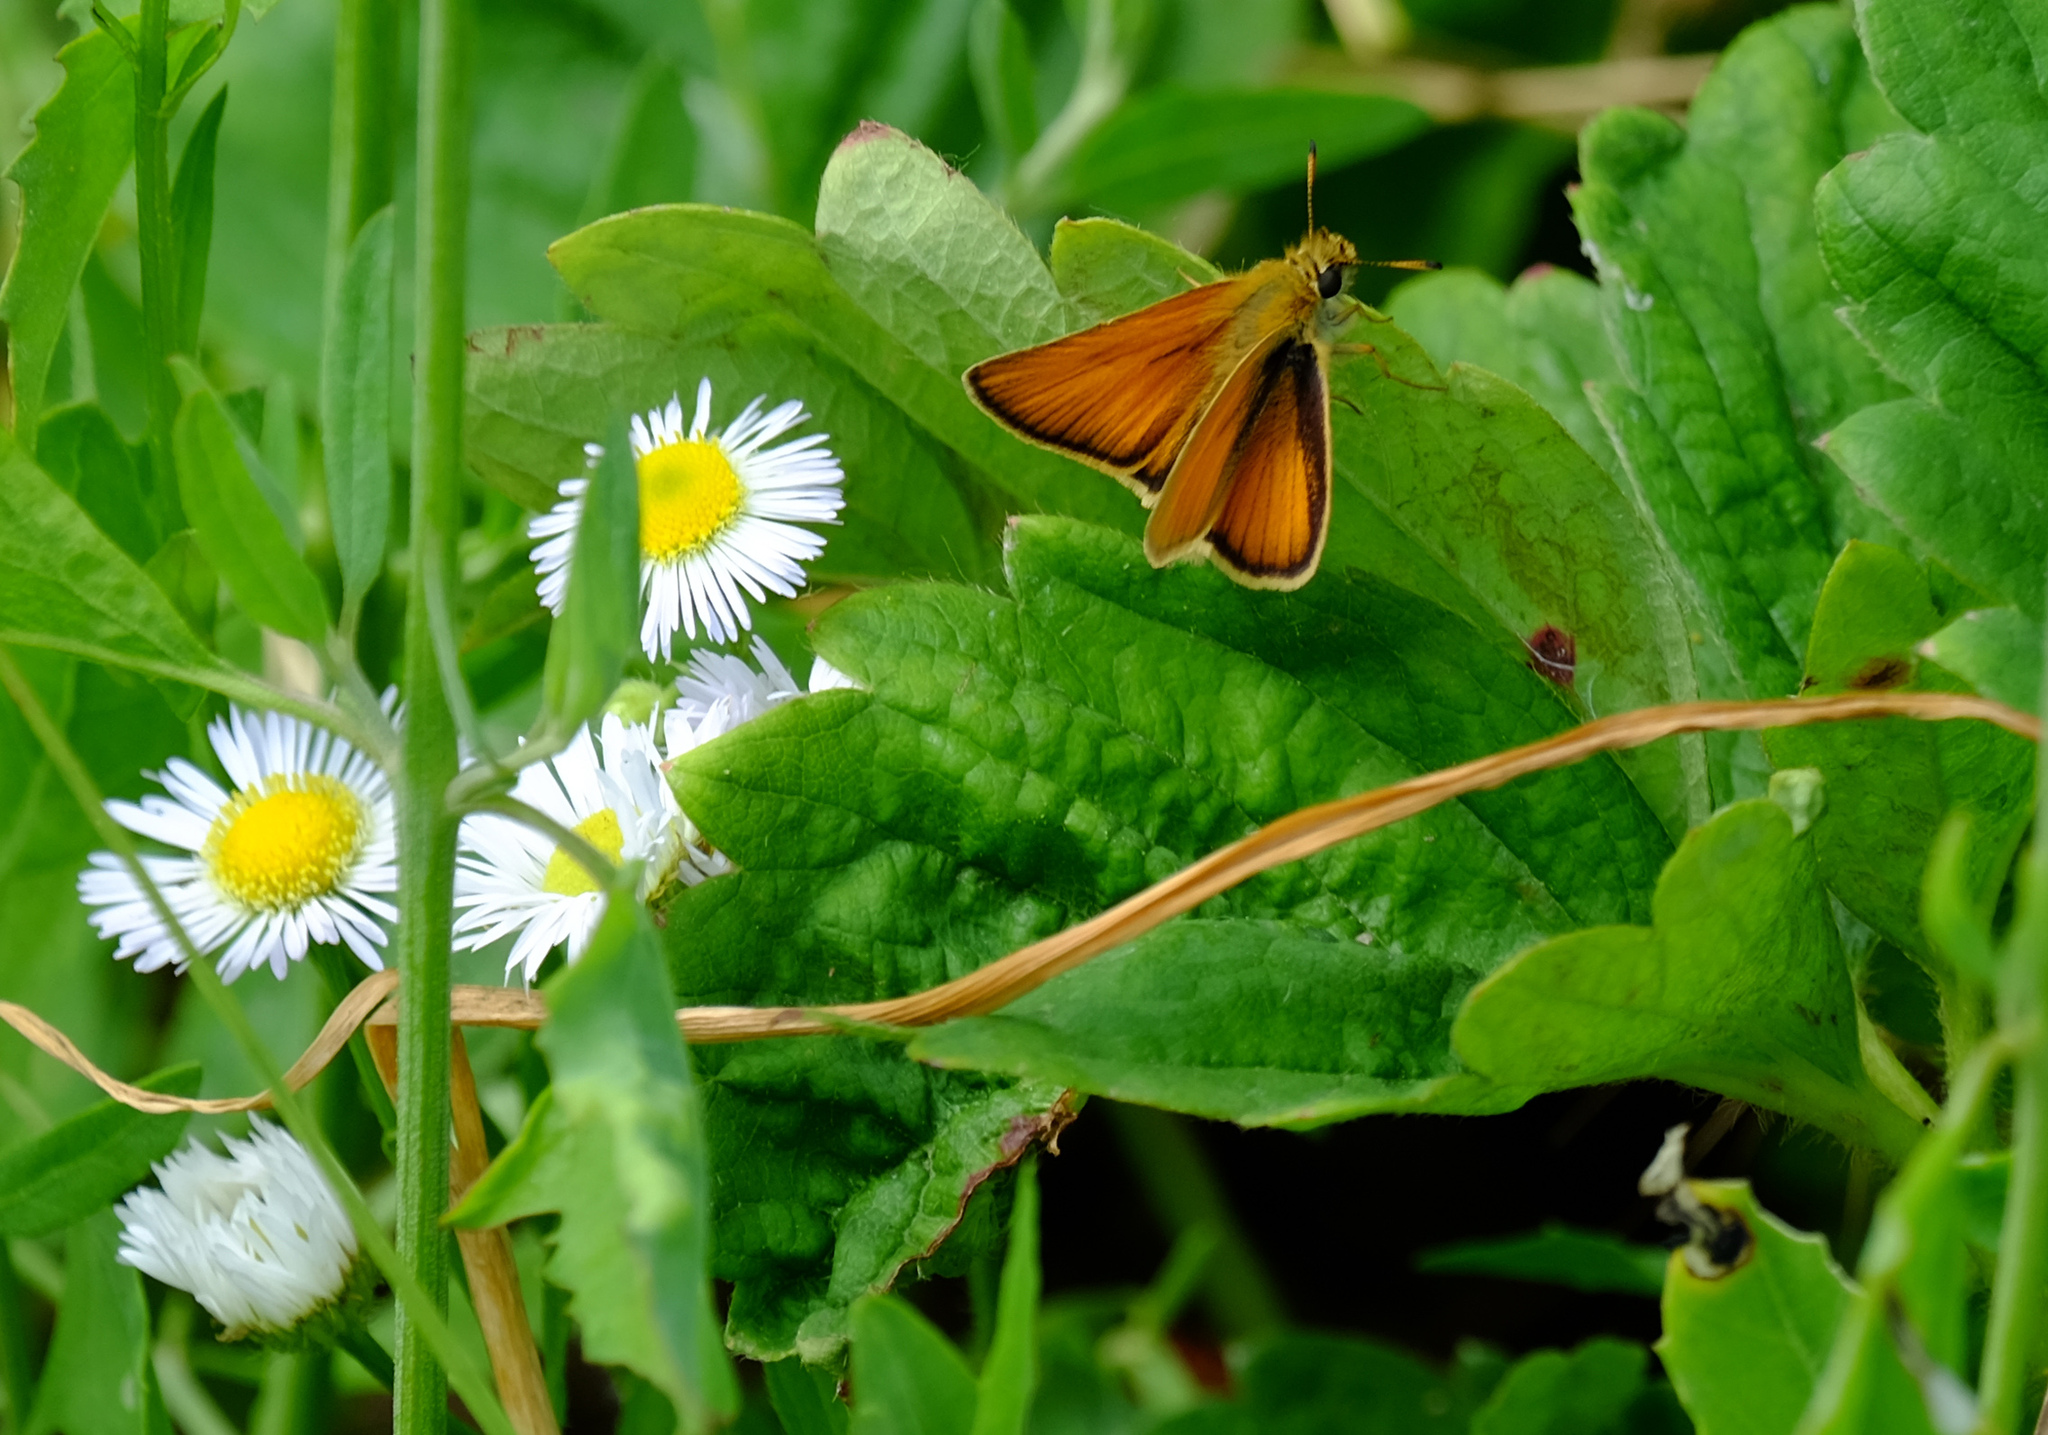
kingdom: Animalia
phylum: Arthropoda
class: Insecta
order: Lepidoptera
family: Hesperiidae
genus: Thymelicus
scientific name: Thymelicus lineola
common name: Essex skipper
